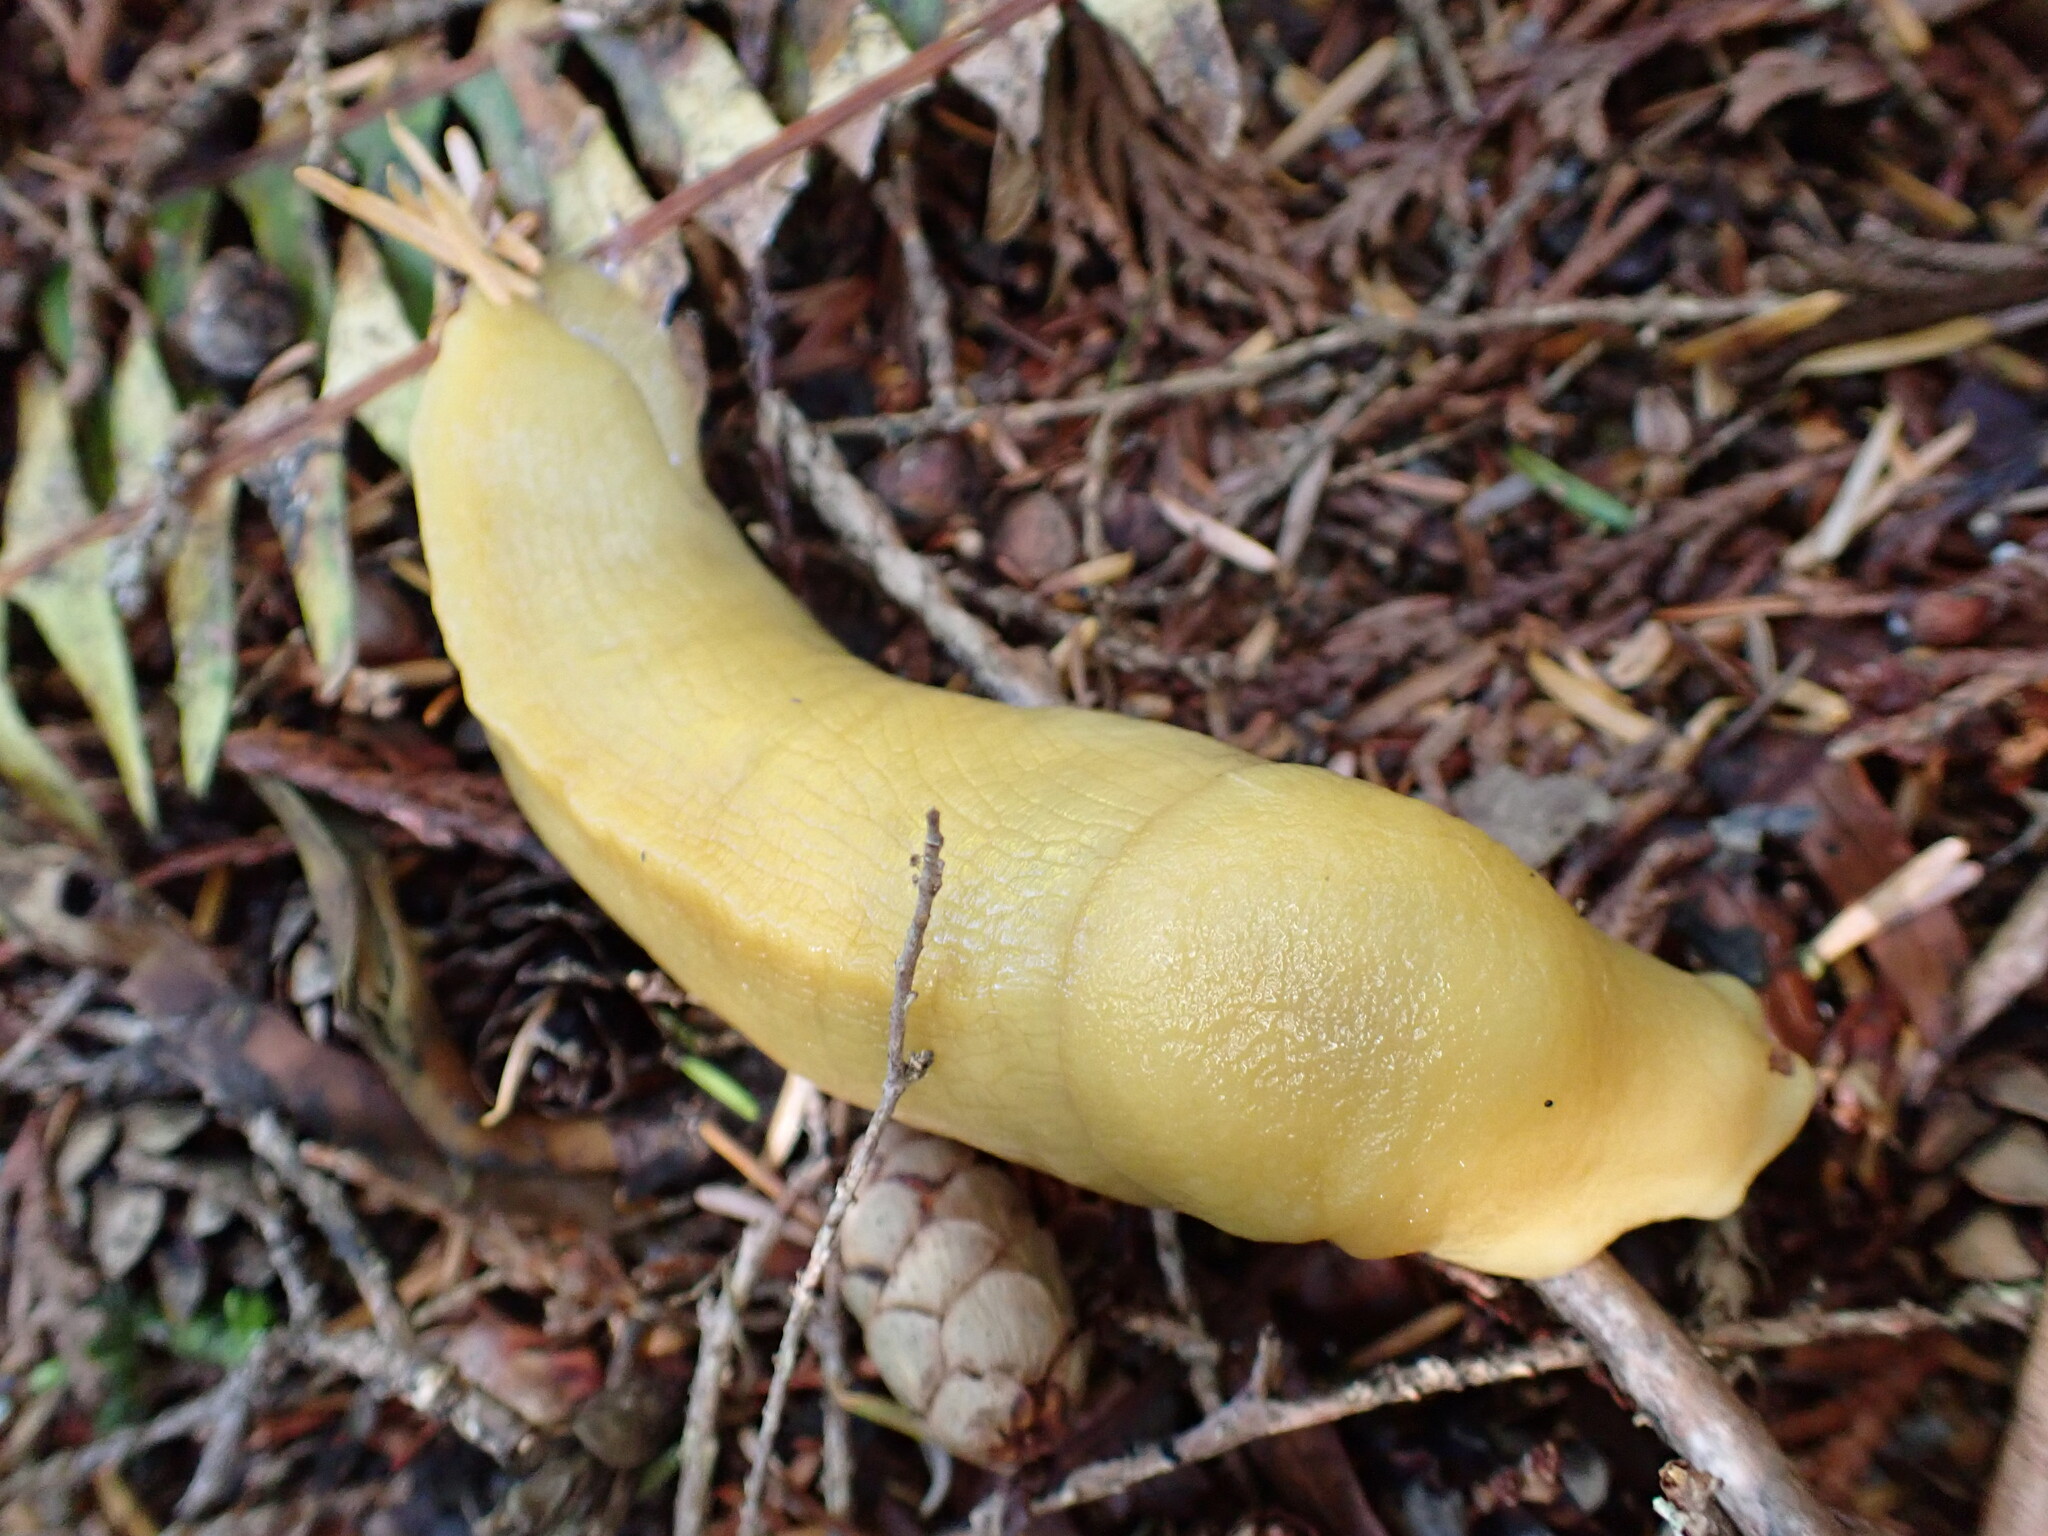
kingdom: Animalia
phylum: Mollusca
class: Gastropoda
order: Stylommatophora
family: Ariolimacidae
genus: Ariolimax
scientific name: Ariolimax columbianus
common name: Pacific banana slug
